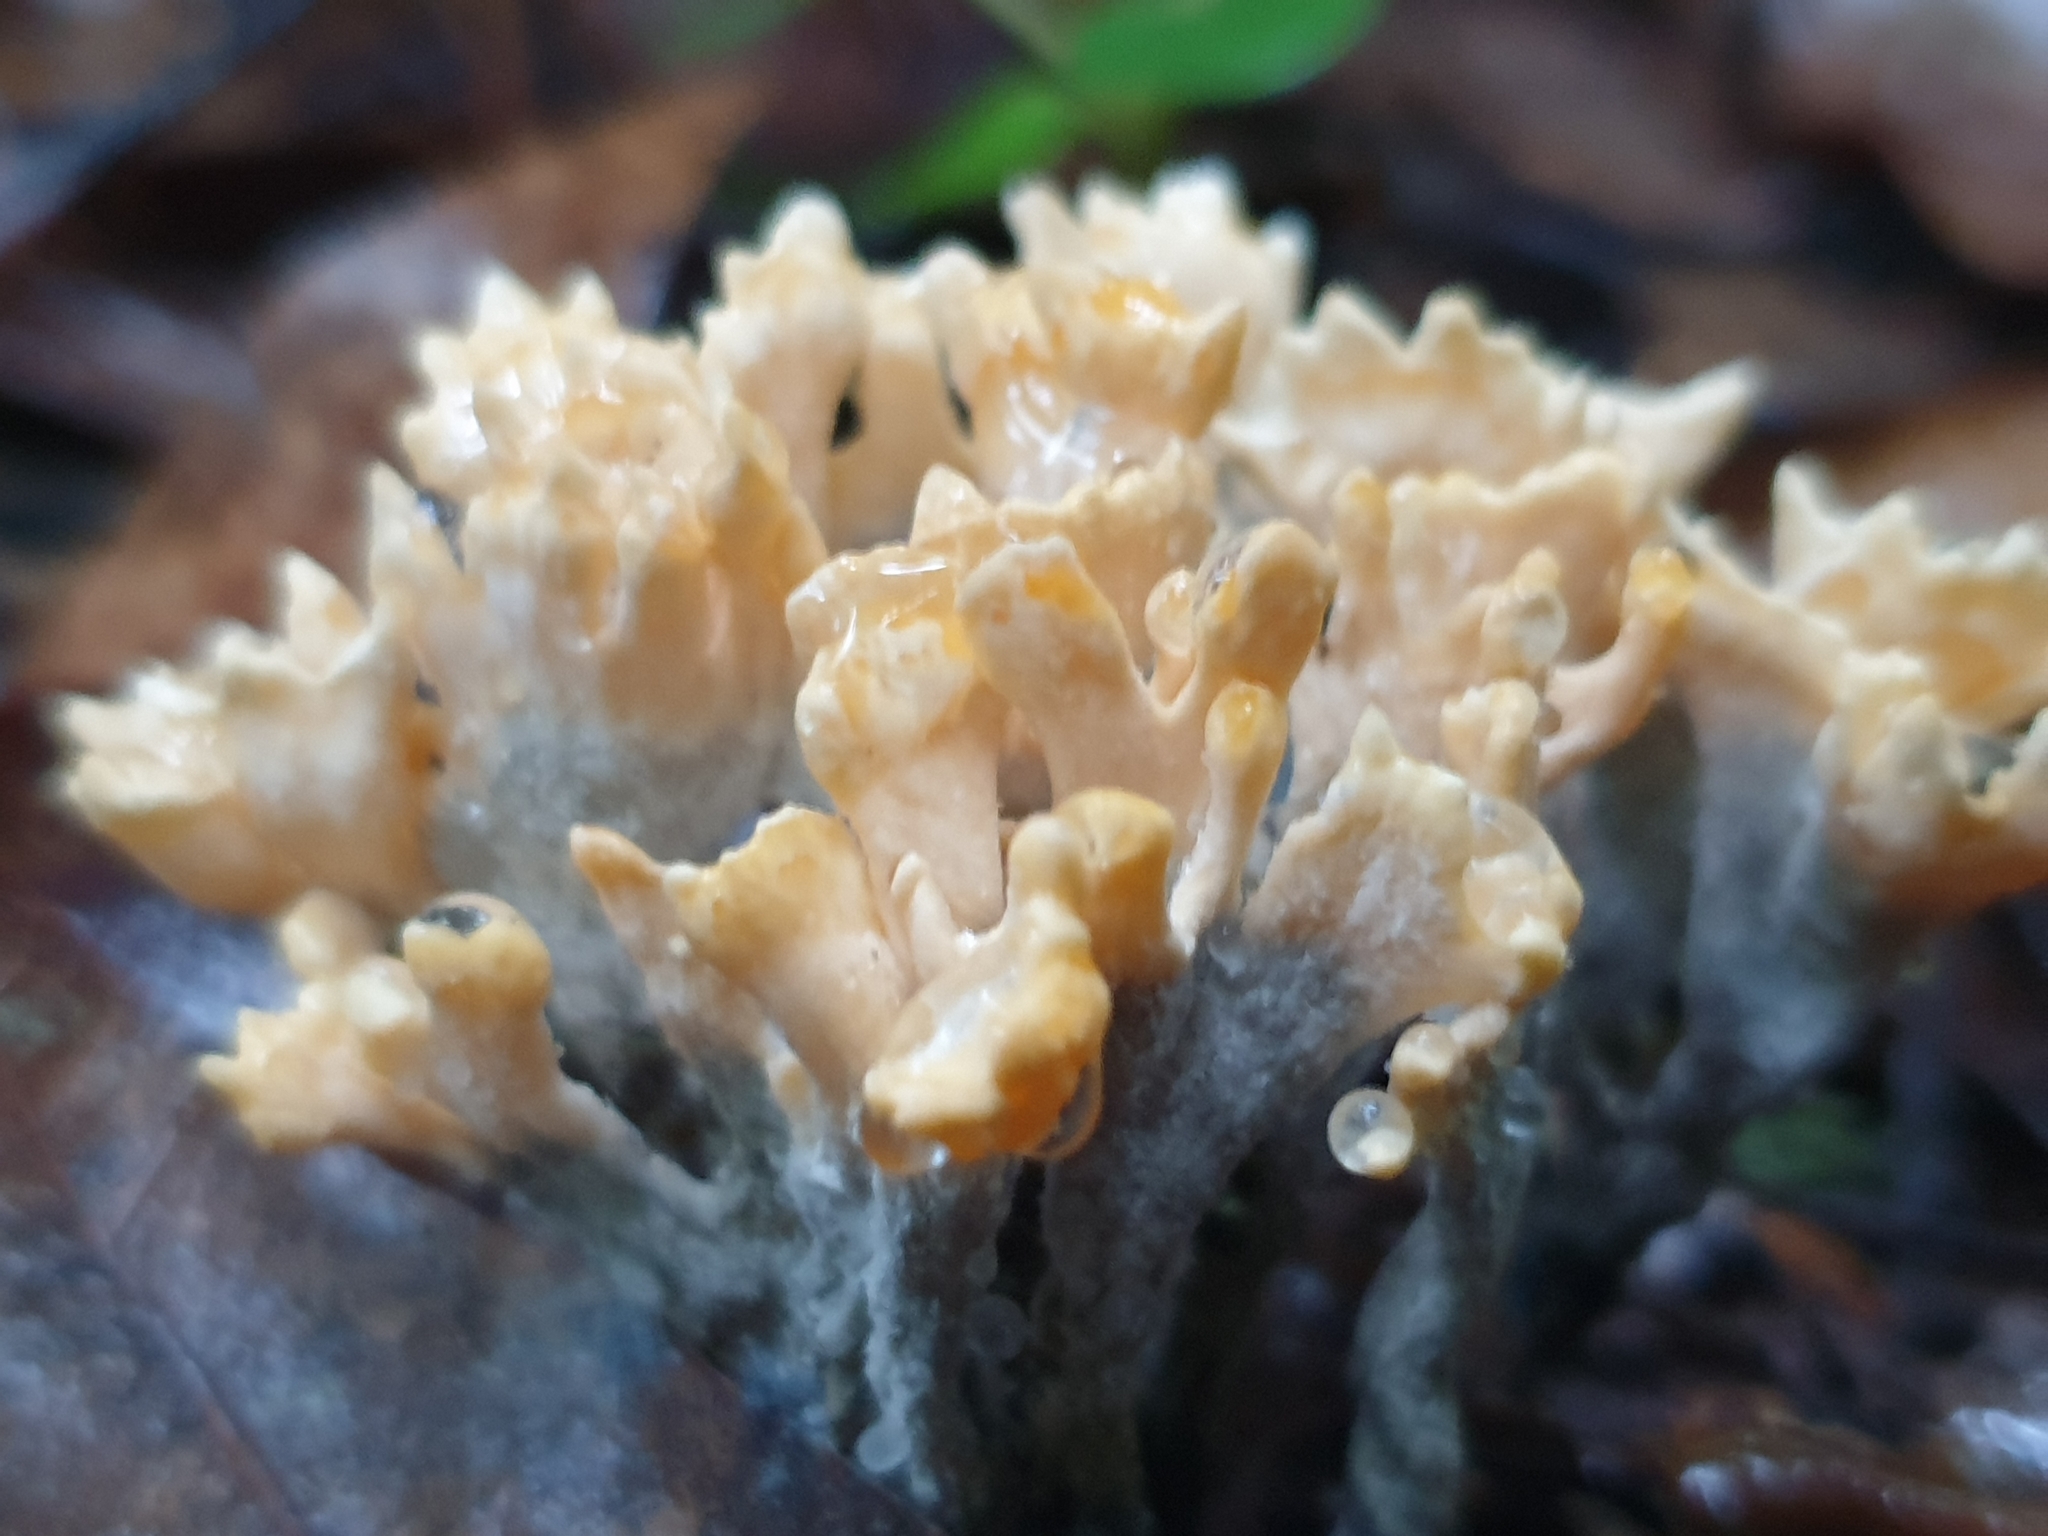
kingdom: Fungi
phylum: Basidiomycota
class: Agaricomycetes
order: Stereopsidales
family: Stereopsidaceae
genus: Stereopsis
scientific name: Stereopsis hiscens
